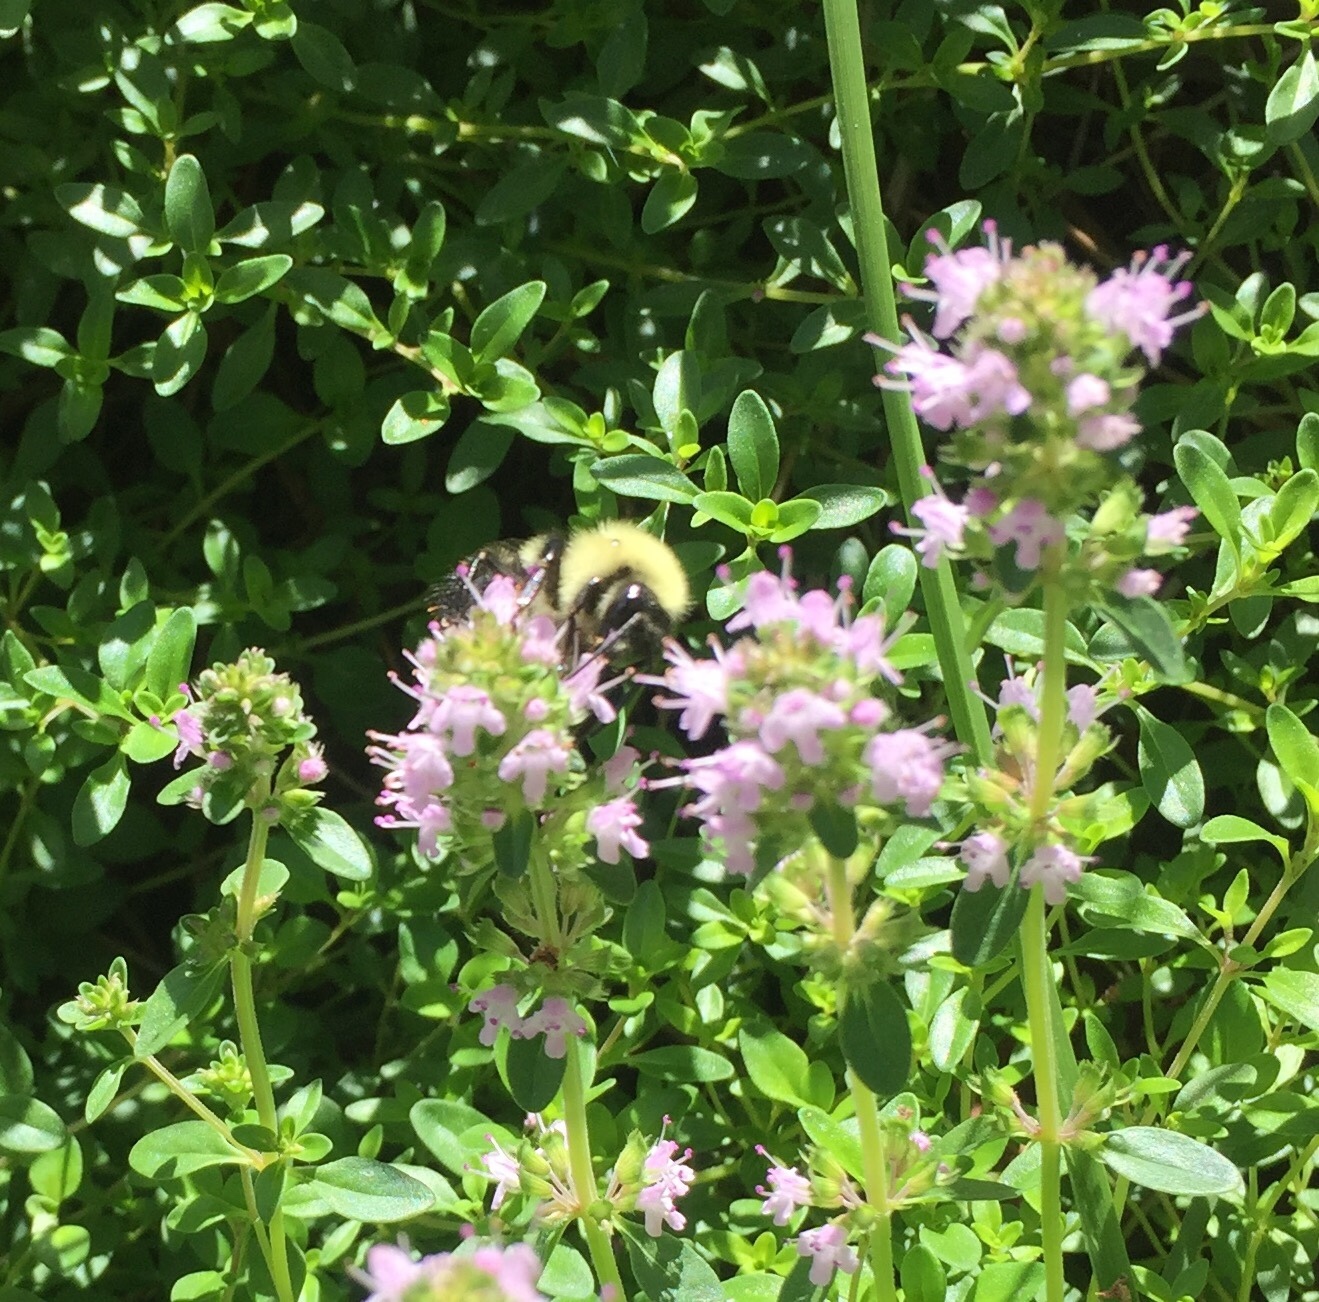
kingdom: Animalia
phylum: Arthropoda
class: Insecta
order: Hymenoptera
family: Apidae
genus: Bombus
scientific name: Bombus bimaculatus
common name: Two-spotted bumble bee
